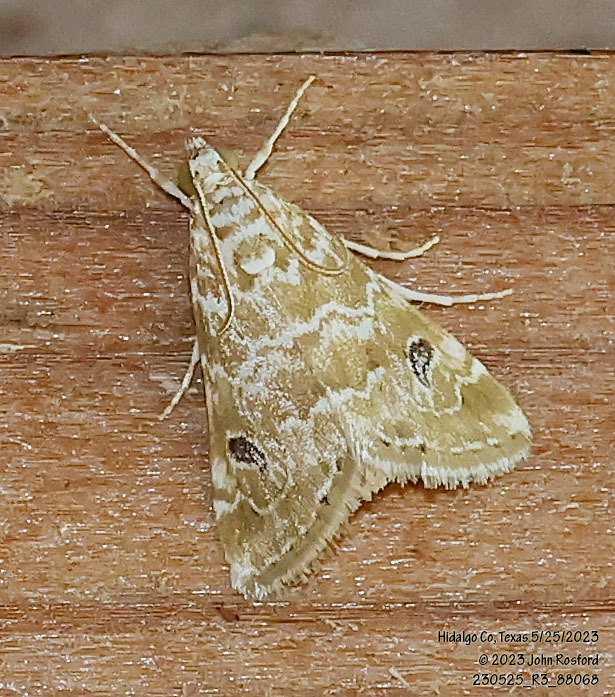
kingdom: Animalia
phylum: Arthropoda
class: Insecta
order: Lepidoptera
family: Crambidae
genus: Hellula
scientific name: Hellula phidilealis
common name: Crambid moth
